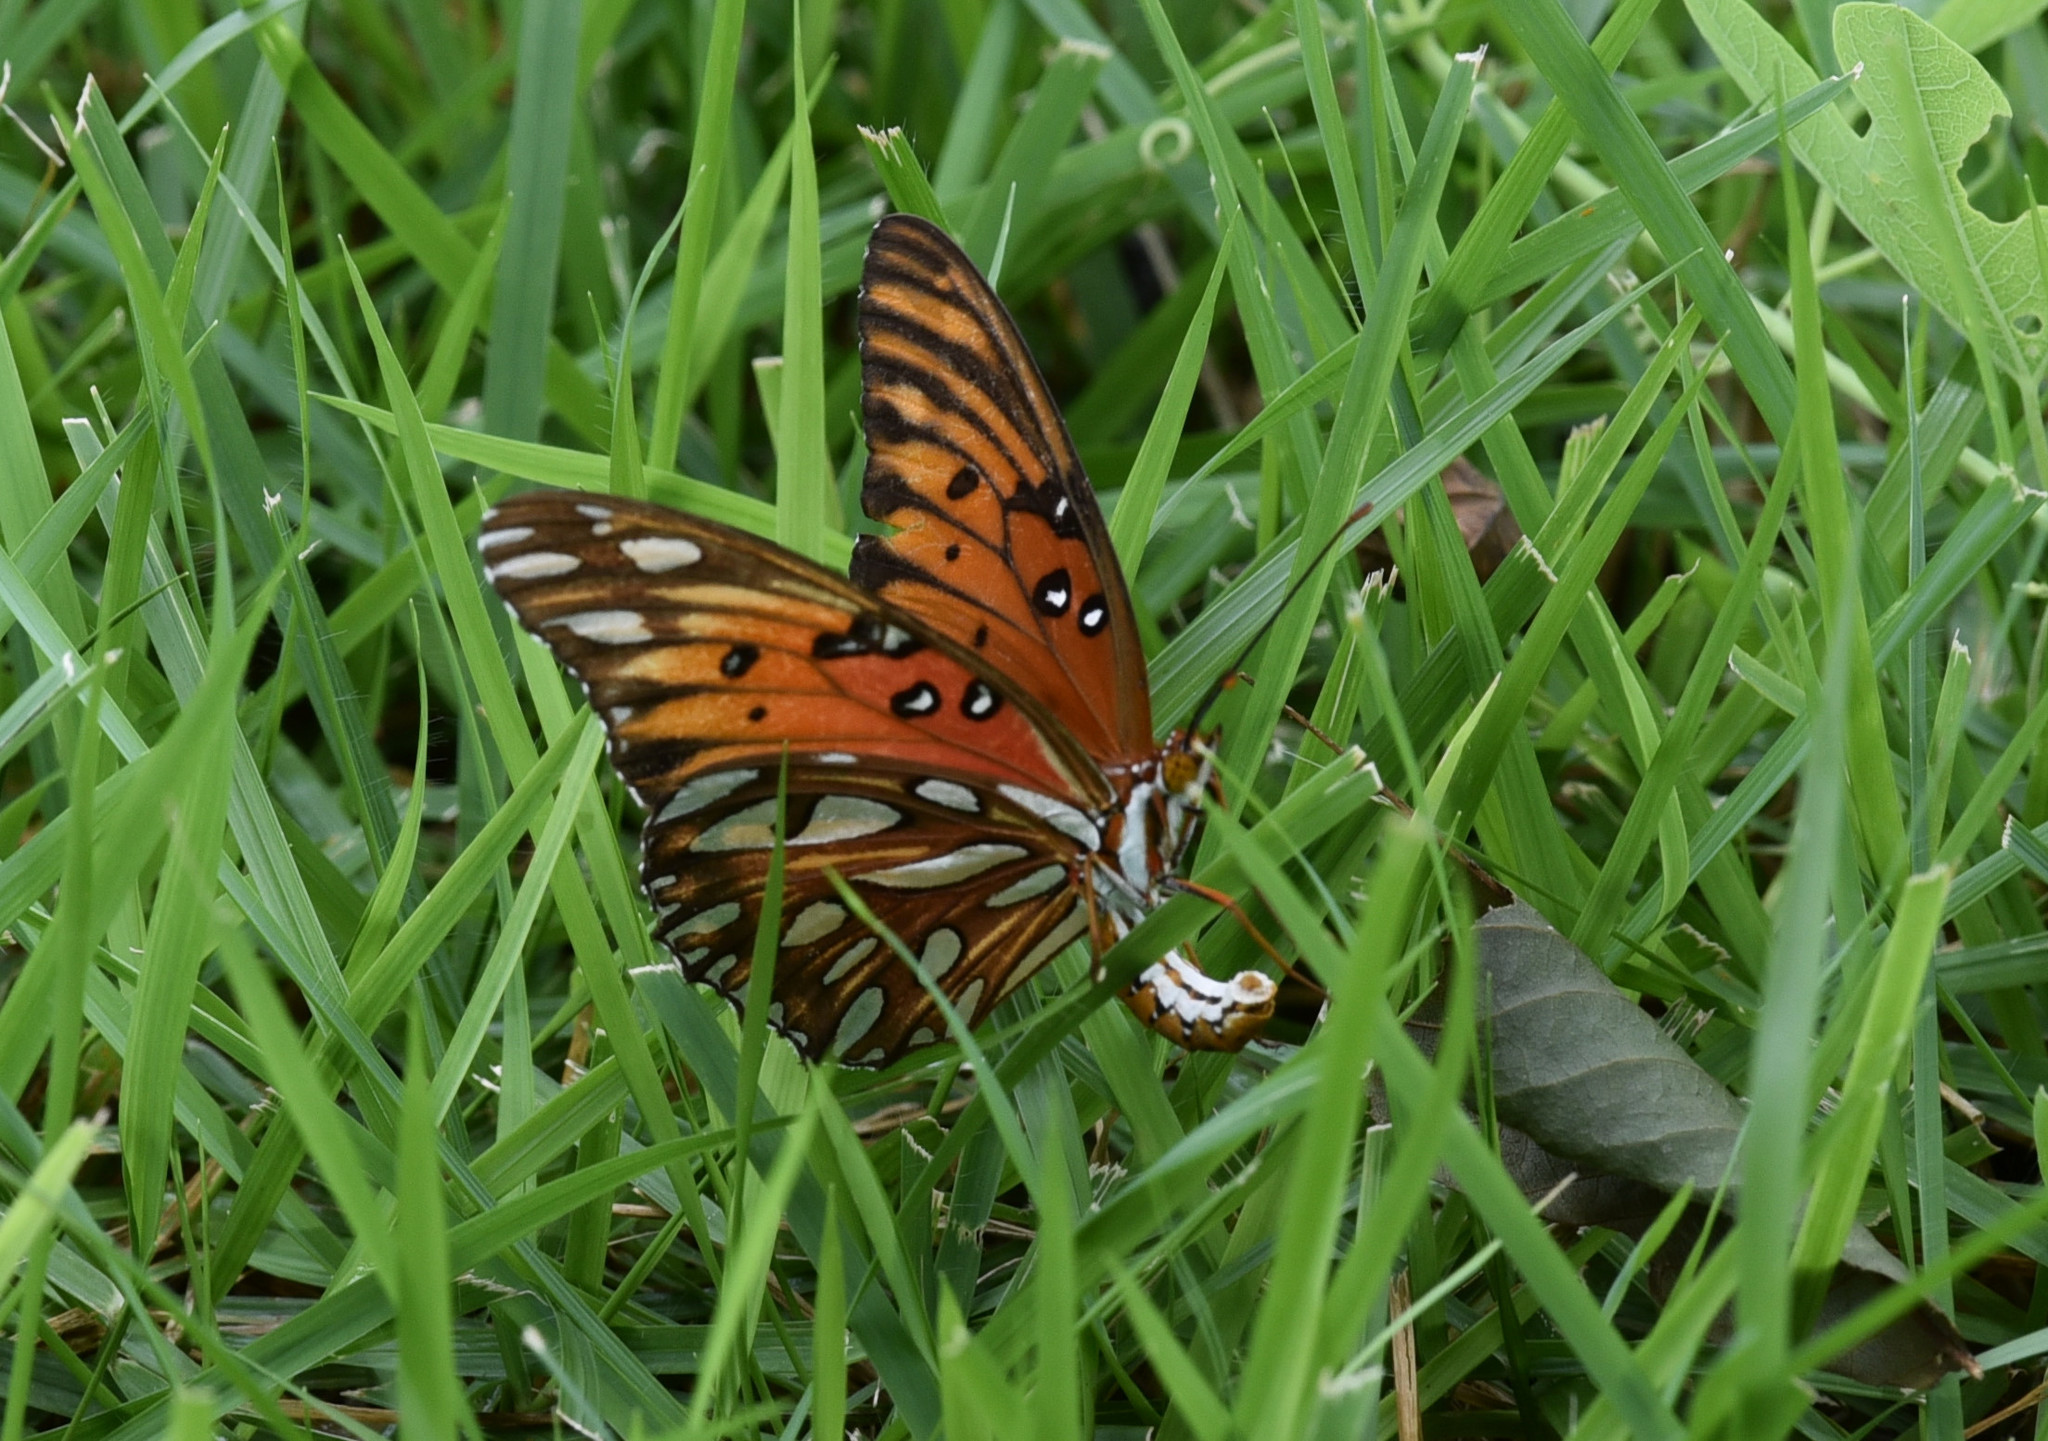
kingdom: Animalia
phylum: Arthropoda
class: Insecta
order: Lepidoptera
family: Nymphalidae
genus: Dione
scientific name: Dione vanillae
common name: Gulf fritillary
